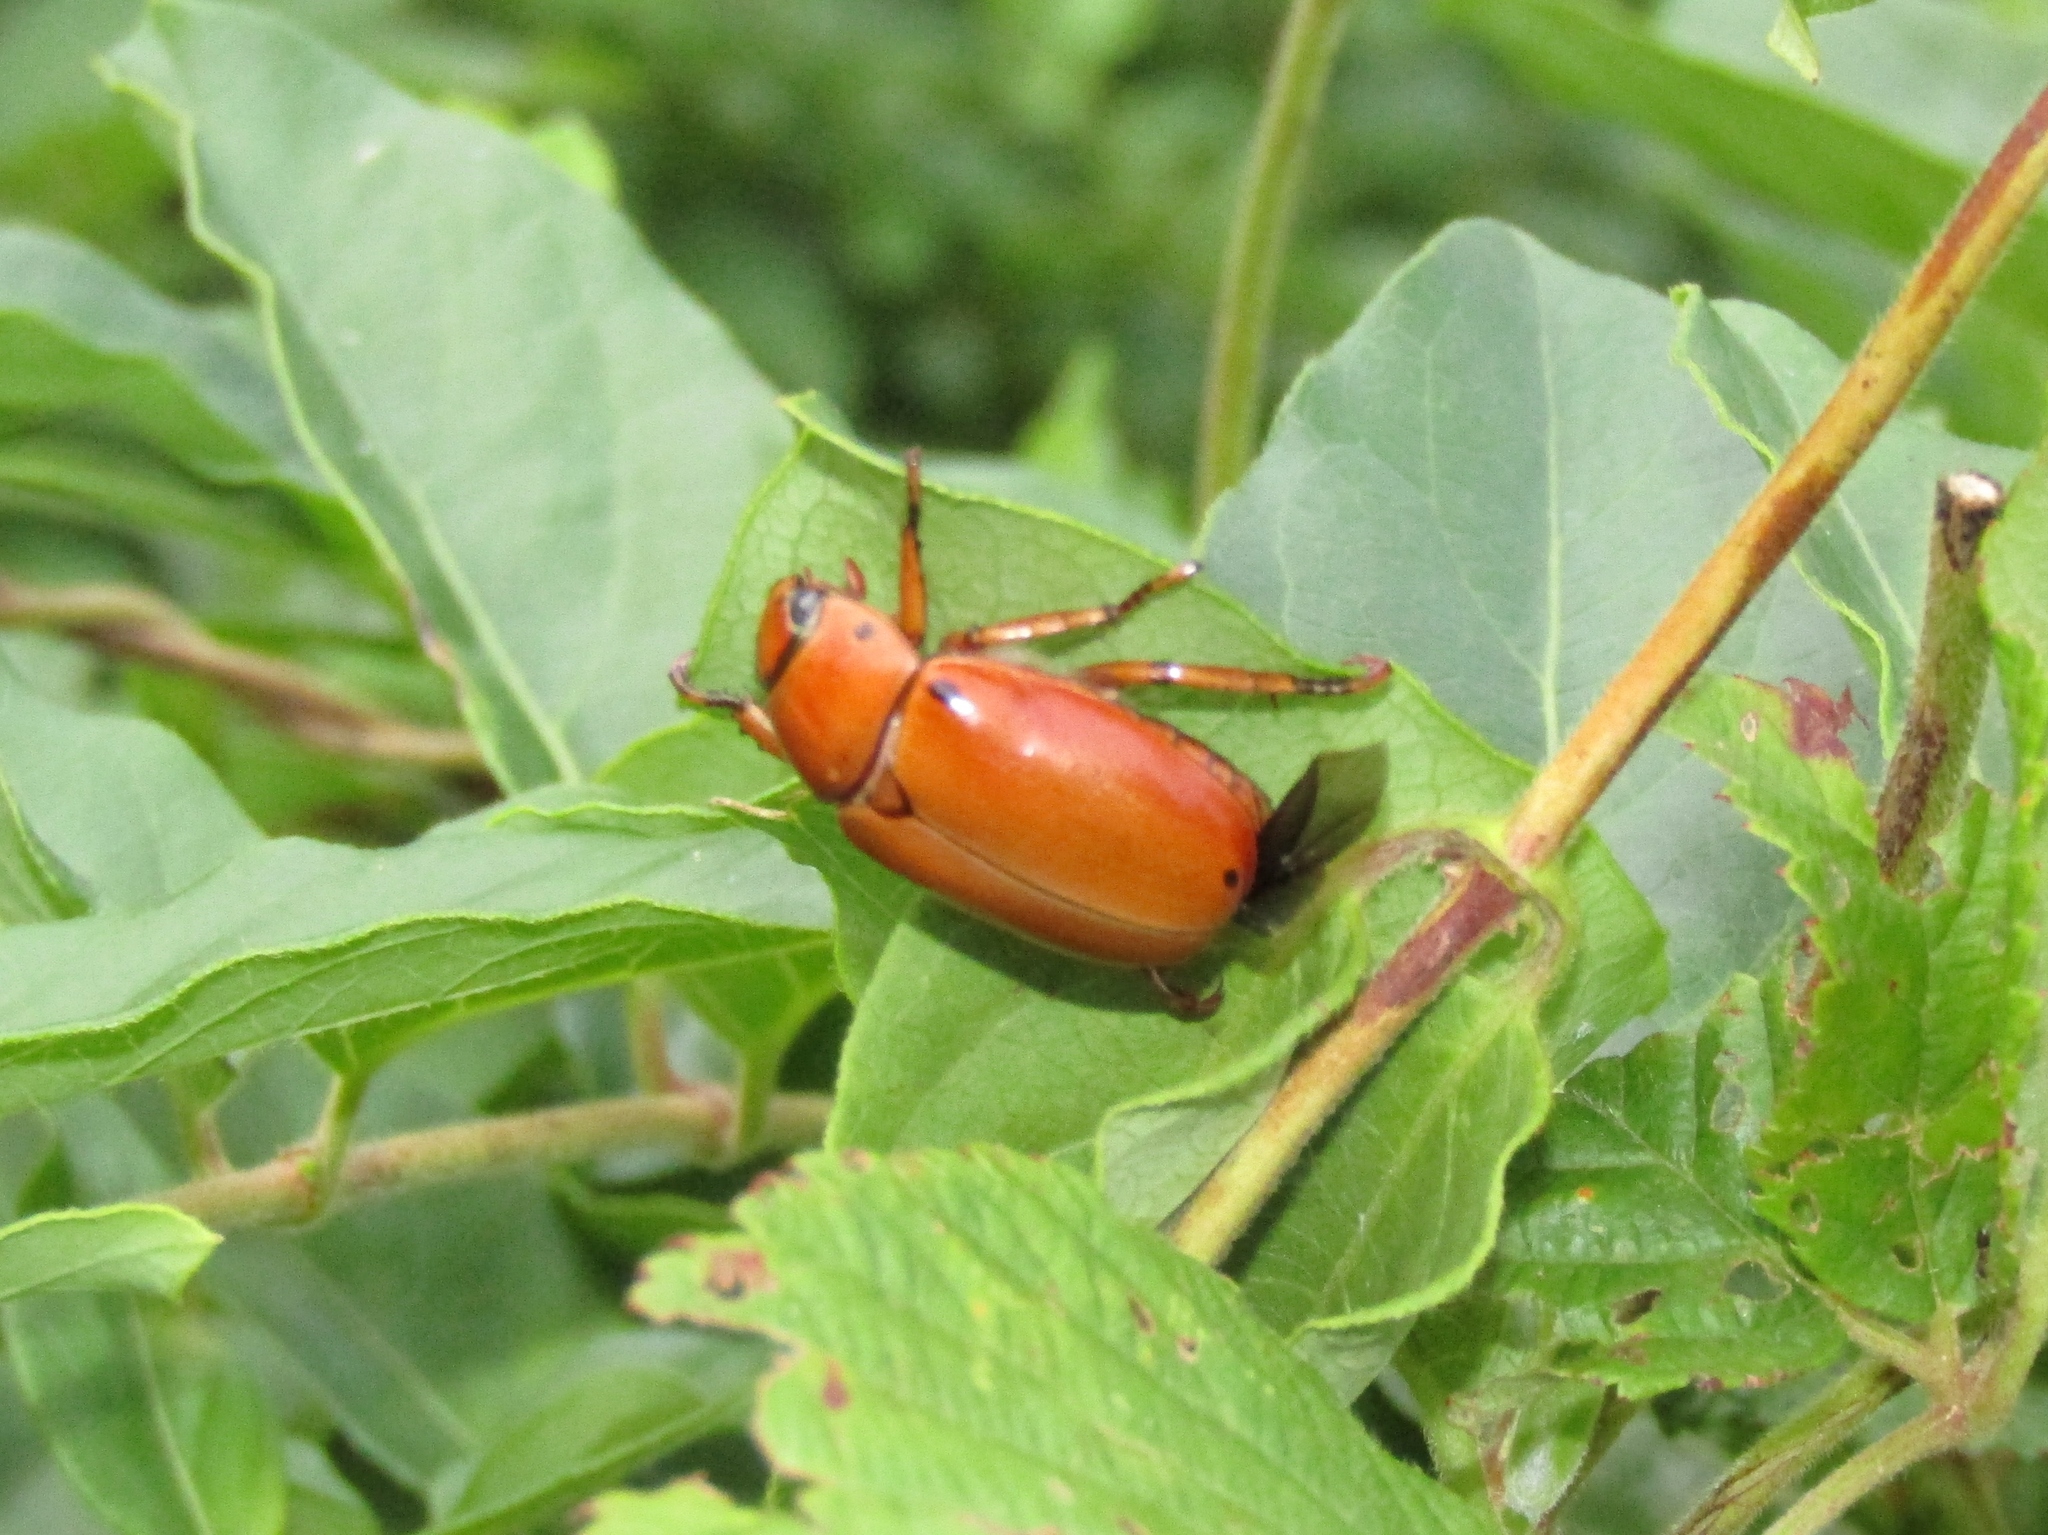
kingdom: Animalia
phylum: Arthropoda
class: Insecta
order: Coleoptera
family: Scarabaeidae
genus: Pelidnota
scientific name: Pelidnota punctata
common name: Grapevine beetle
